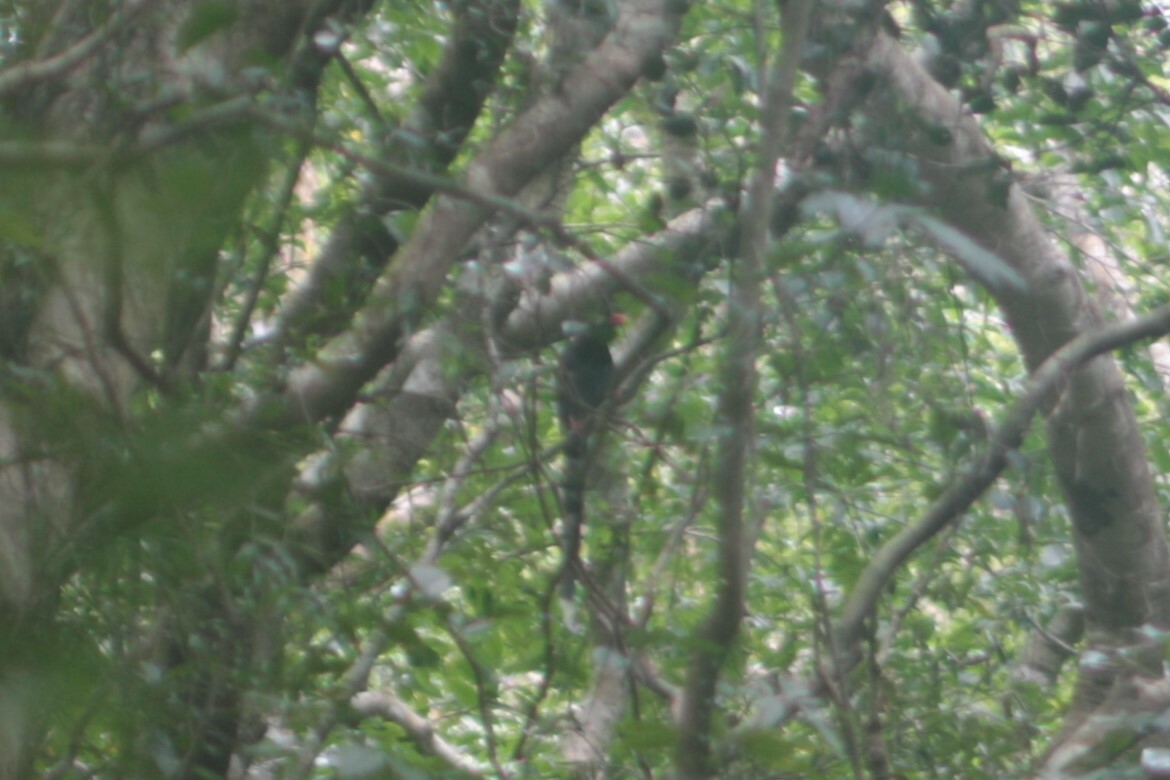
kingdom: Animalia
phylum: Chordata
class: Aves
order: Passeriformes
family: Corvidae
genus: Urocissa
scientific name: Urocissa caerulea
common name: Taiwan blue magpie
